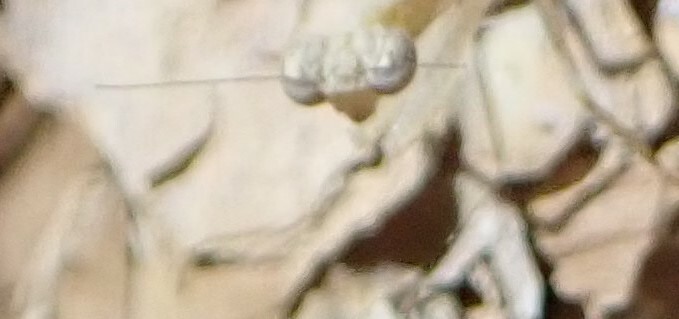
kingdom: Animalia
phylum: Arthropoda
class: Insecta
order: Mantodea
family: Nanomantidae
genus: Ima
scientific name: Ima fusca
